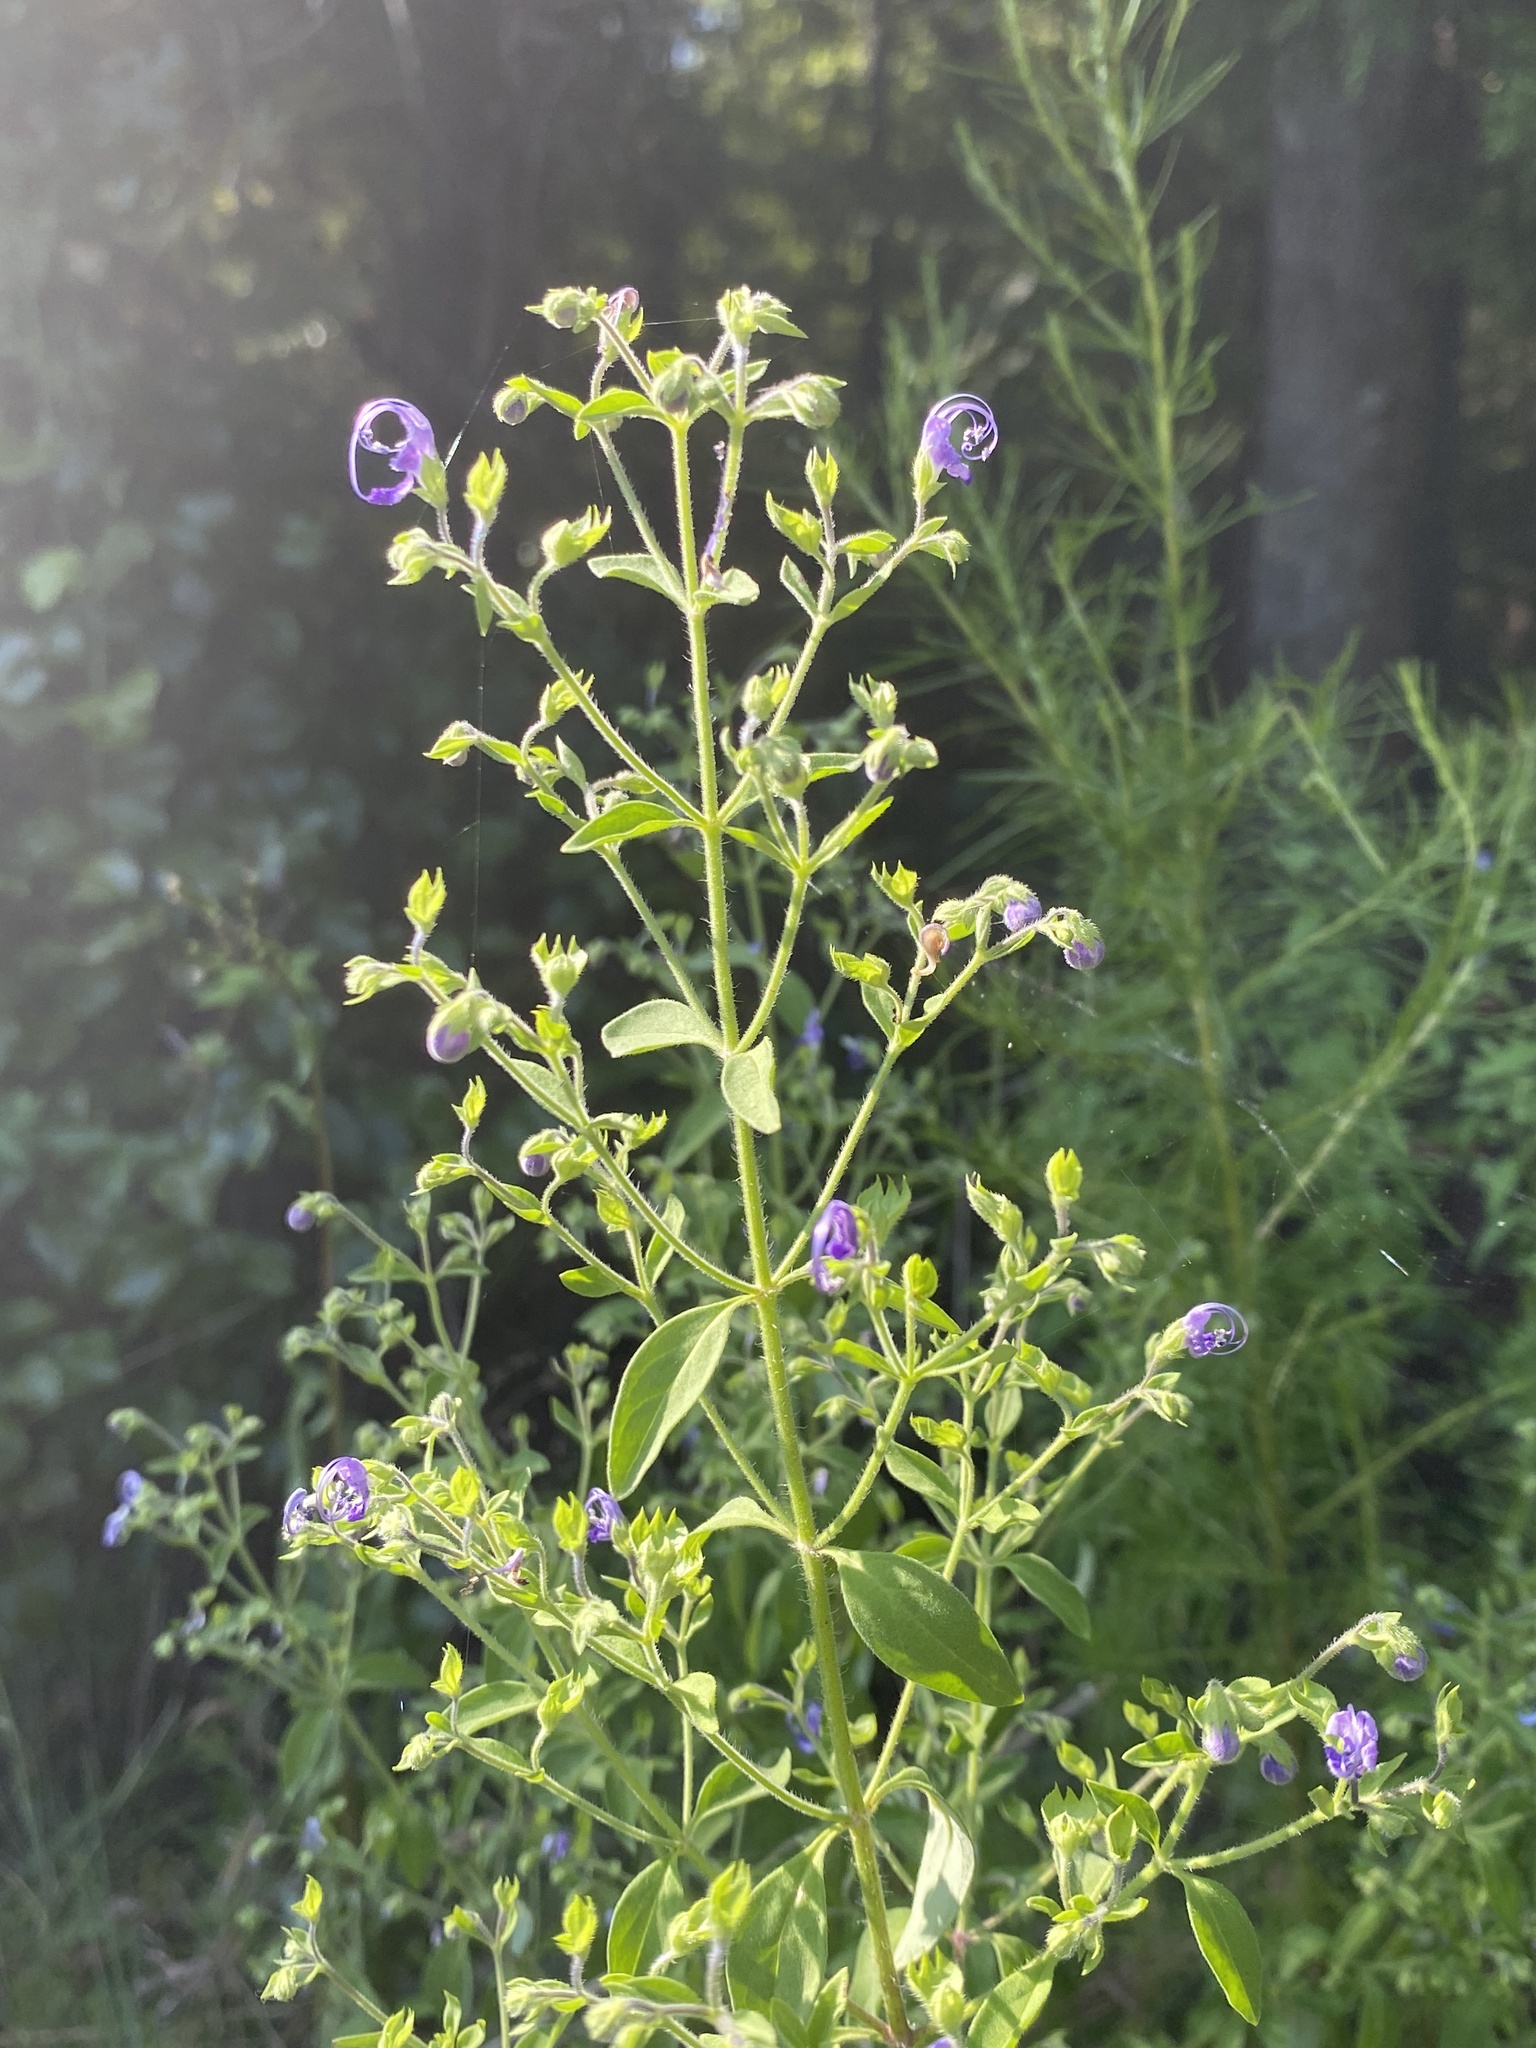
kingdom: Plantae
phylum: Tracheophyta
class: Magnoliopsida
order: Lamiales
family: Lamiaceae
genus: Trichostema
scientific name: Trichostema dichotomum
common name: Bastard pennyroyal
